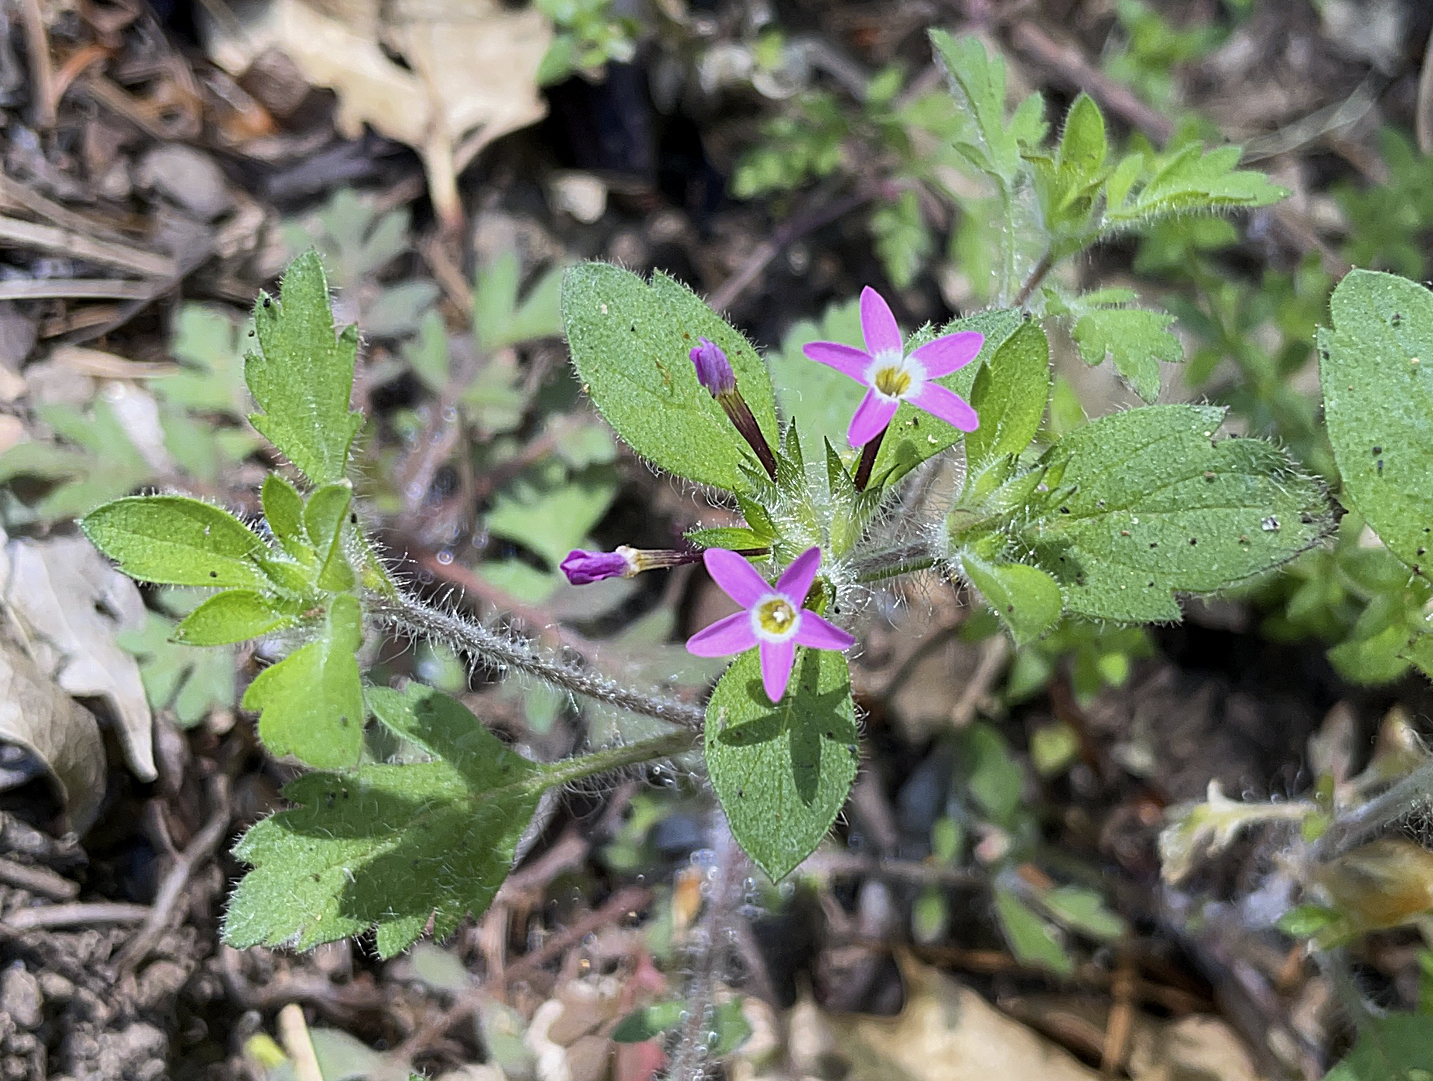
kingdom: Plantae
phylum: Tracheophyta
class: Magnoliopsida
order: Ericales
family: Polemoniaceae
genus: Collomia
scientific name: Collomia heterophylla
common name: Variable-leaved collomia
